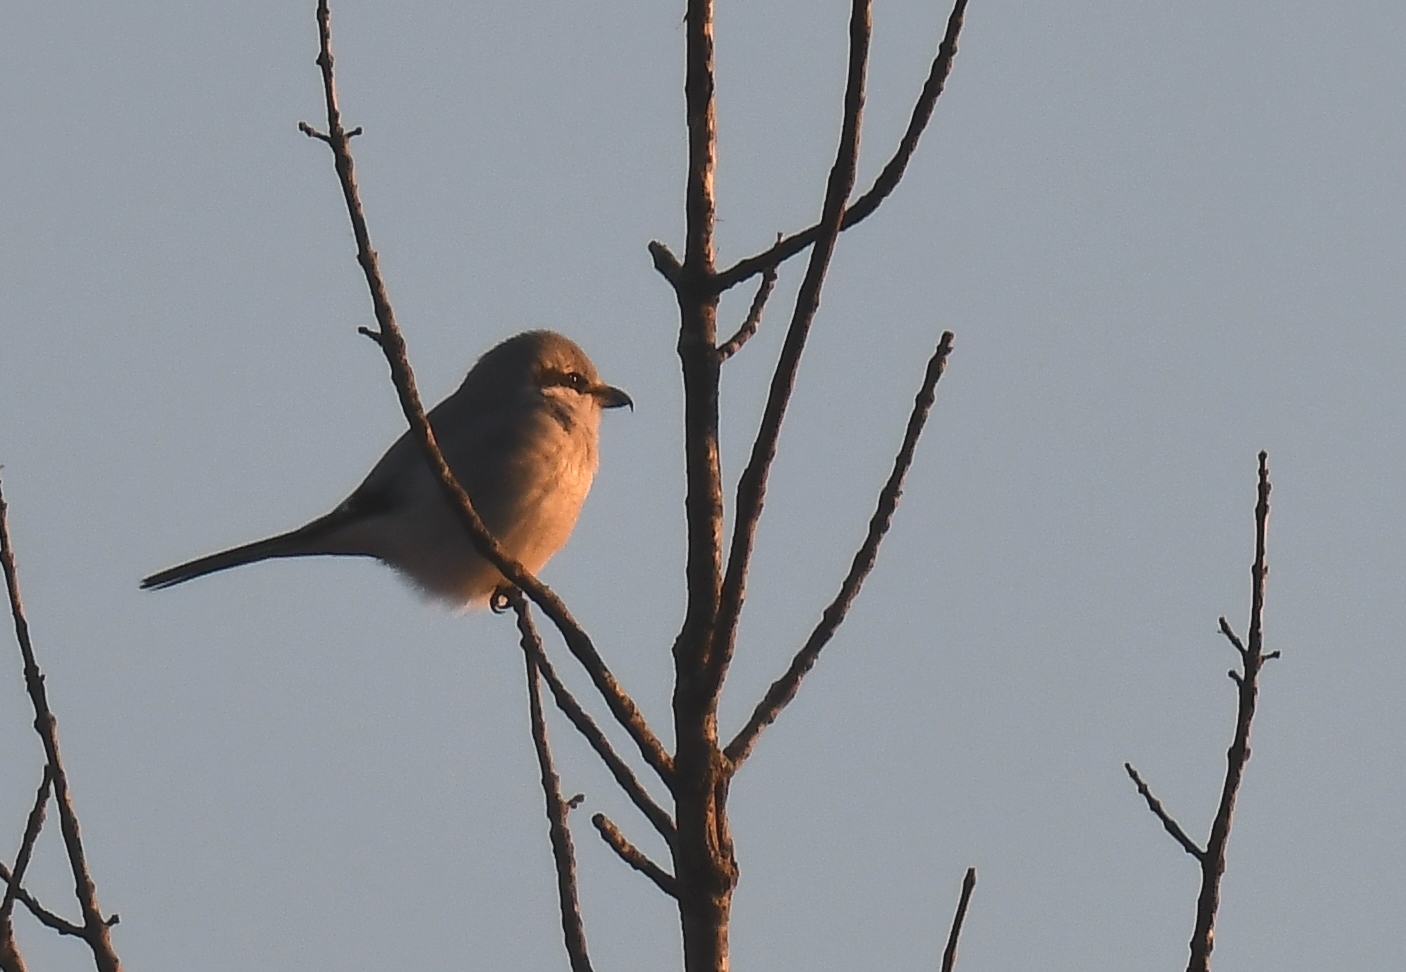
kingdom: Animalia
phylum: Chordata
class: Aves
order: Passeriformes
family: Laniidae
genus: Lanius
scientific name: Lanius borealis
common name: Northern shrike
